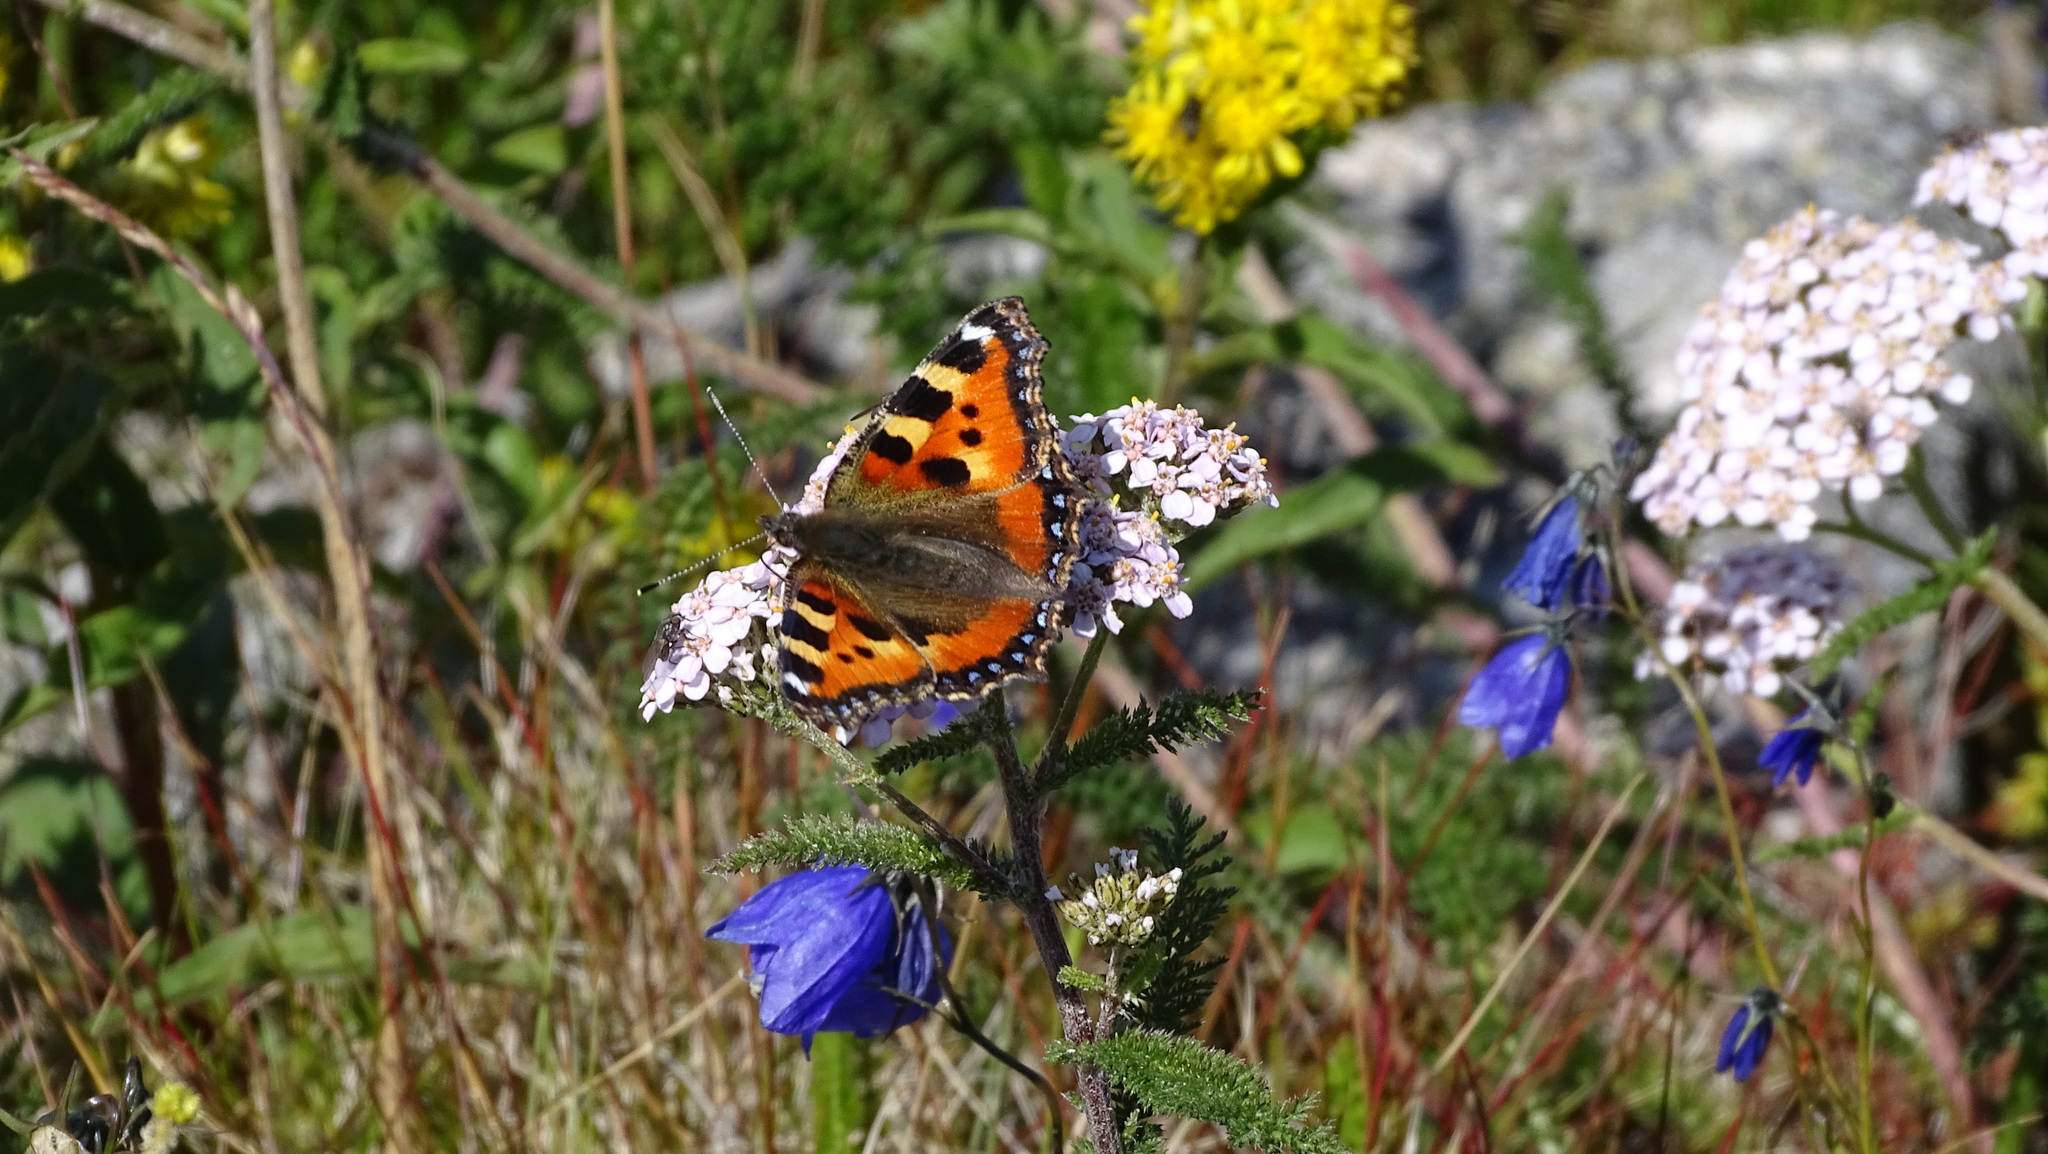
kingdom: Animalia
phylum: Arthropoda
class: Insecta
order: Lepidoptera
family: Nymphalidae
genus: Aglais
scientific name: Aglais urticae
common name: Small tortoiseshell
